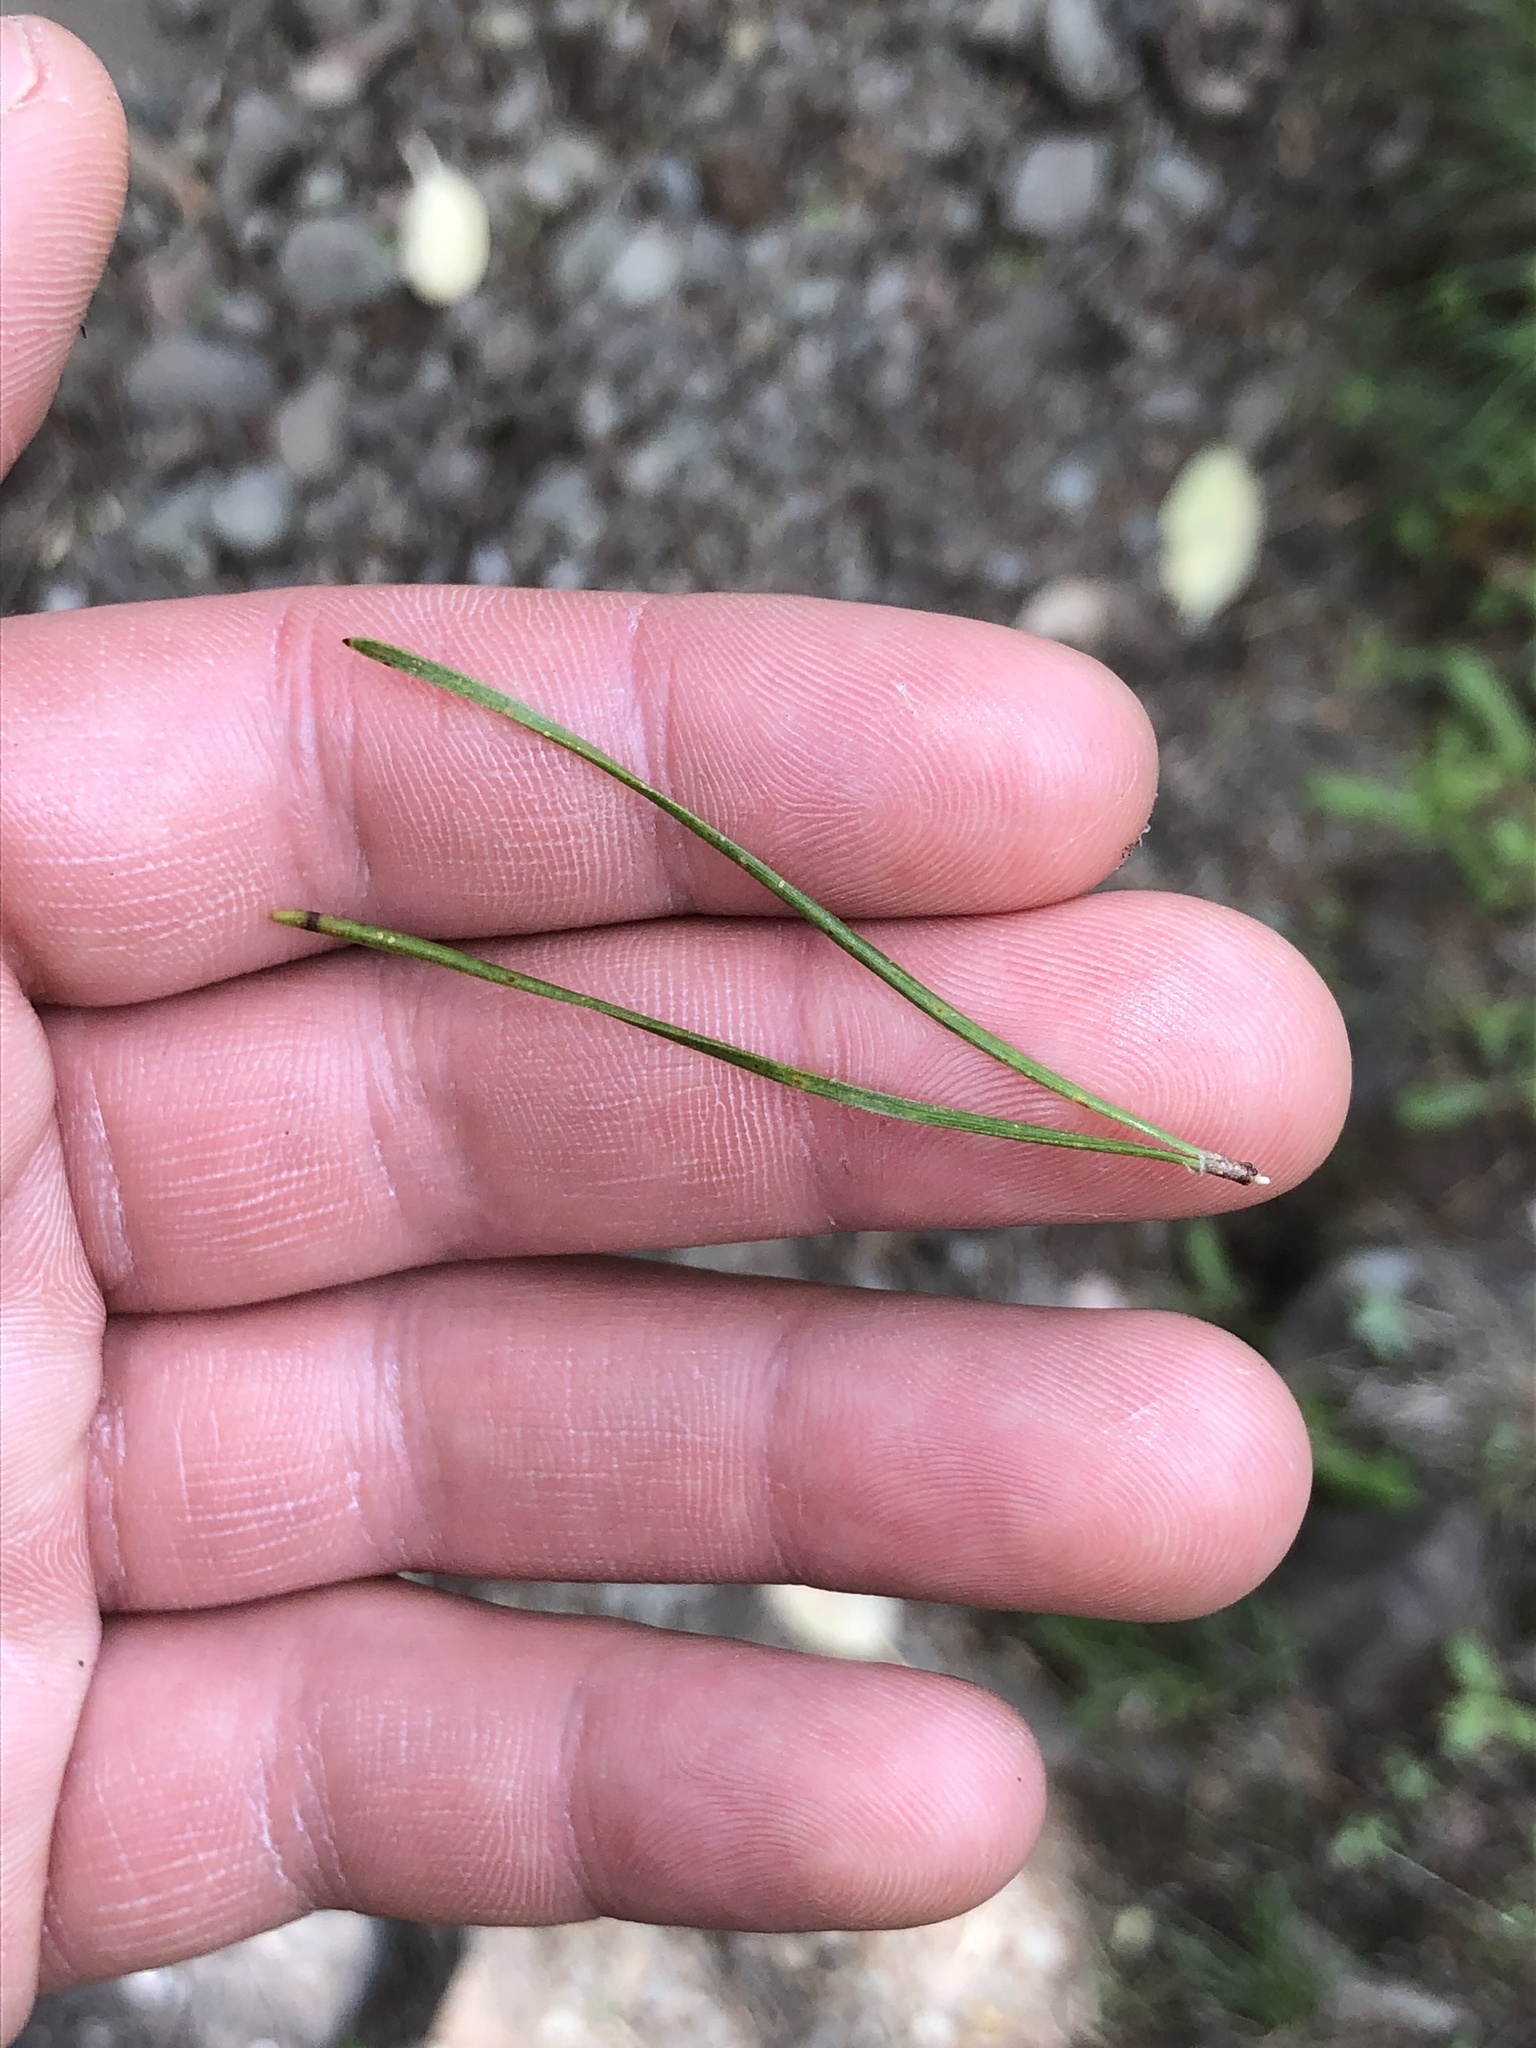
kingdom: Plantae
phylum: Tracheophyta
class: Pinopsida
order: Pinales
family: Pinaceae
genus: Pinus
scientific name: Pinus contorta
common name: Lodgepole pine
